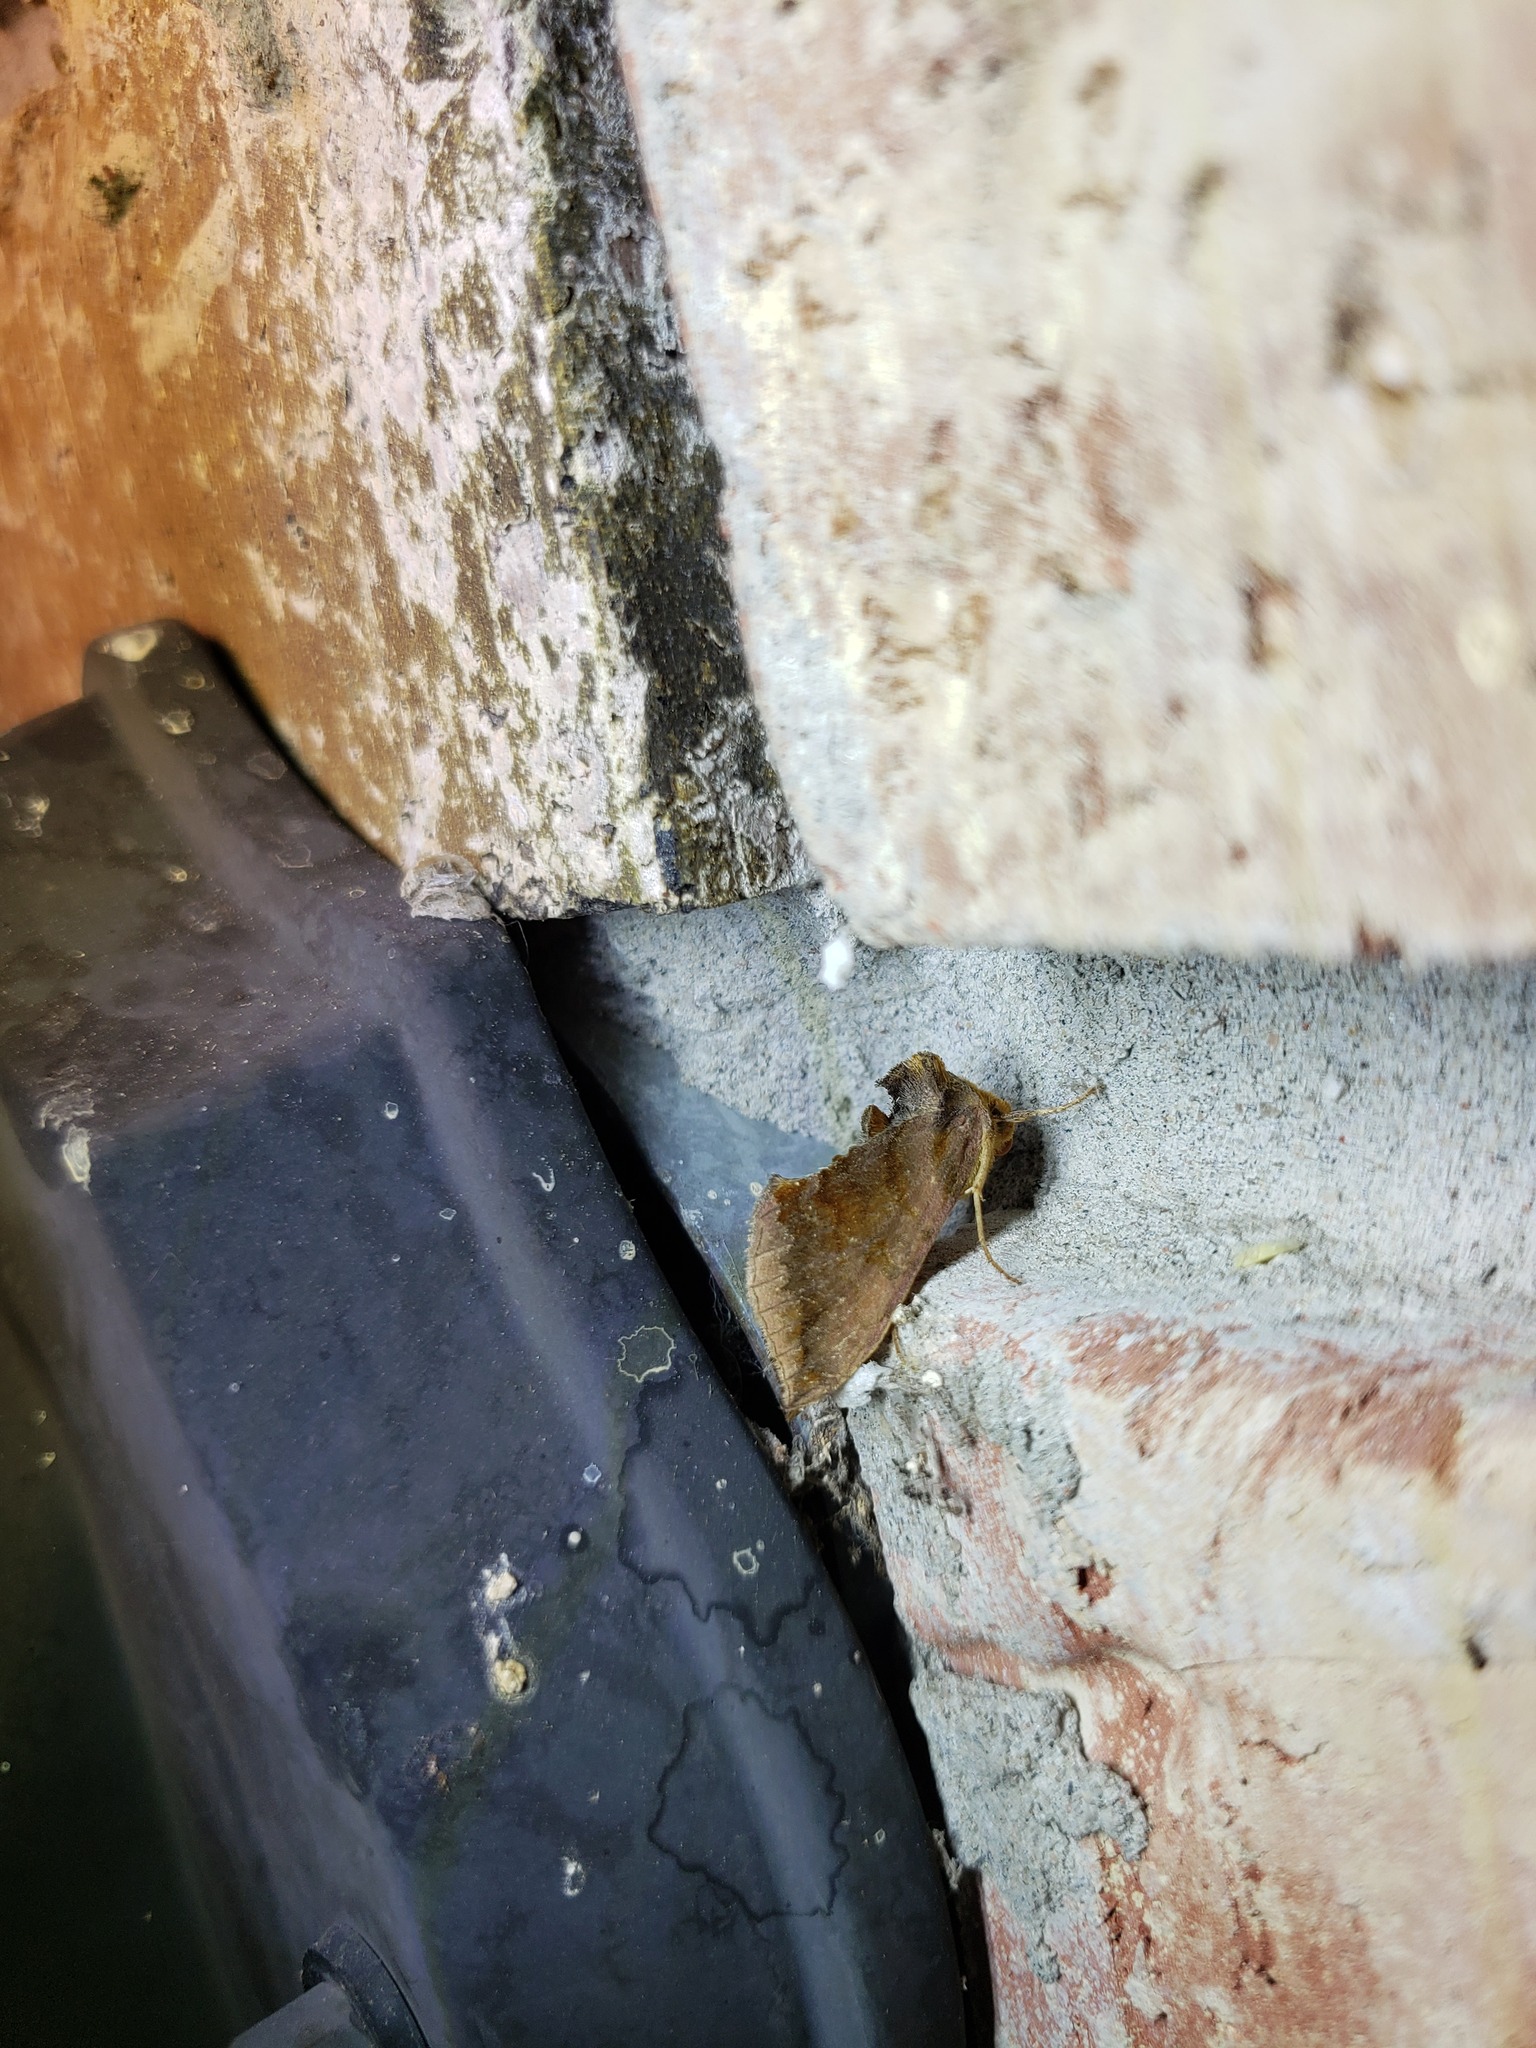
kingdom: Animalia
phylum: Arthropoda
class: Insecta
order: Lepidoptera
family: Noctuidae
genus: Allagrapha
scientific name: Allagrapha aerea
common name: Unspotted looper moth
